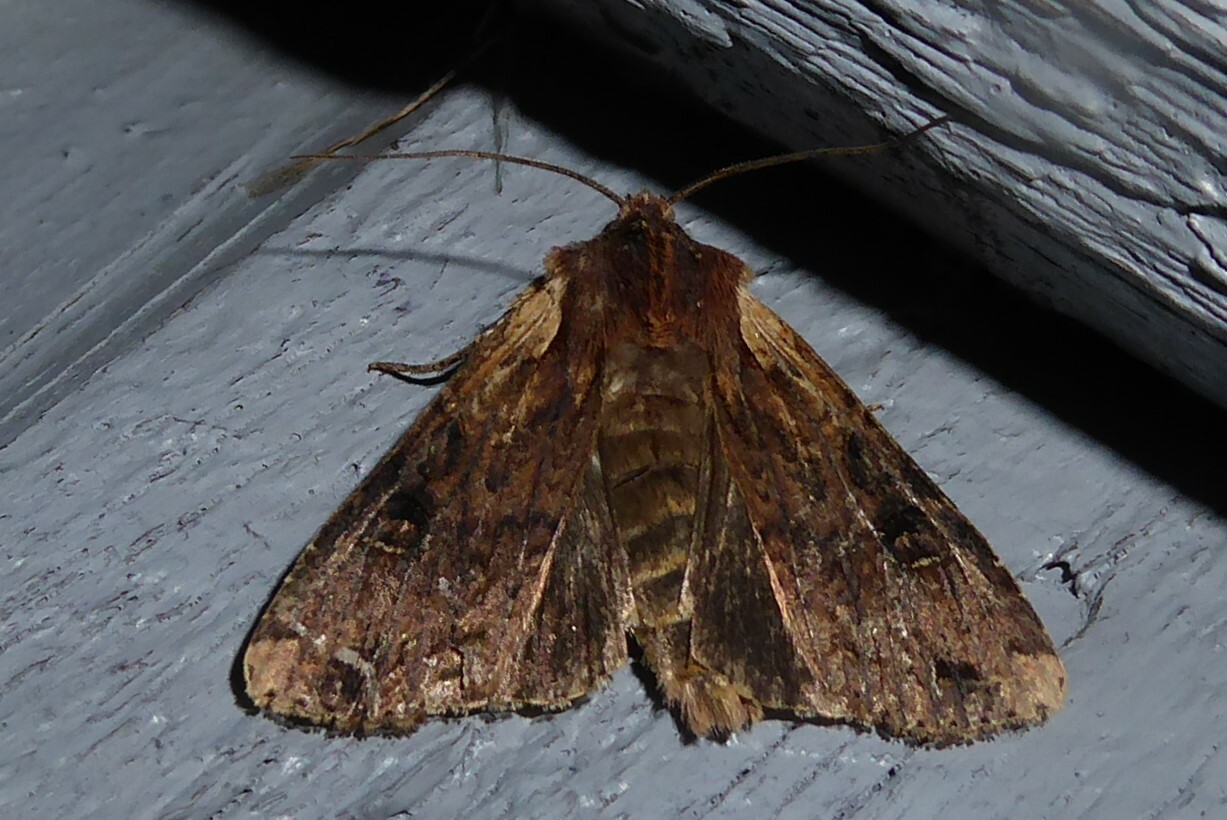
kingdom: Animalia
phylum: Arthropoda
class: Insecta
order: Lepidoptera
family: Noctuidae
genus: Ichneutica
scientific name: Ichneutica omoplaca
